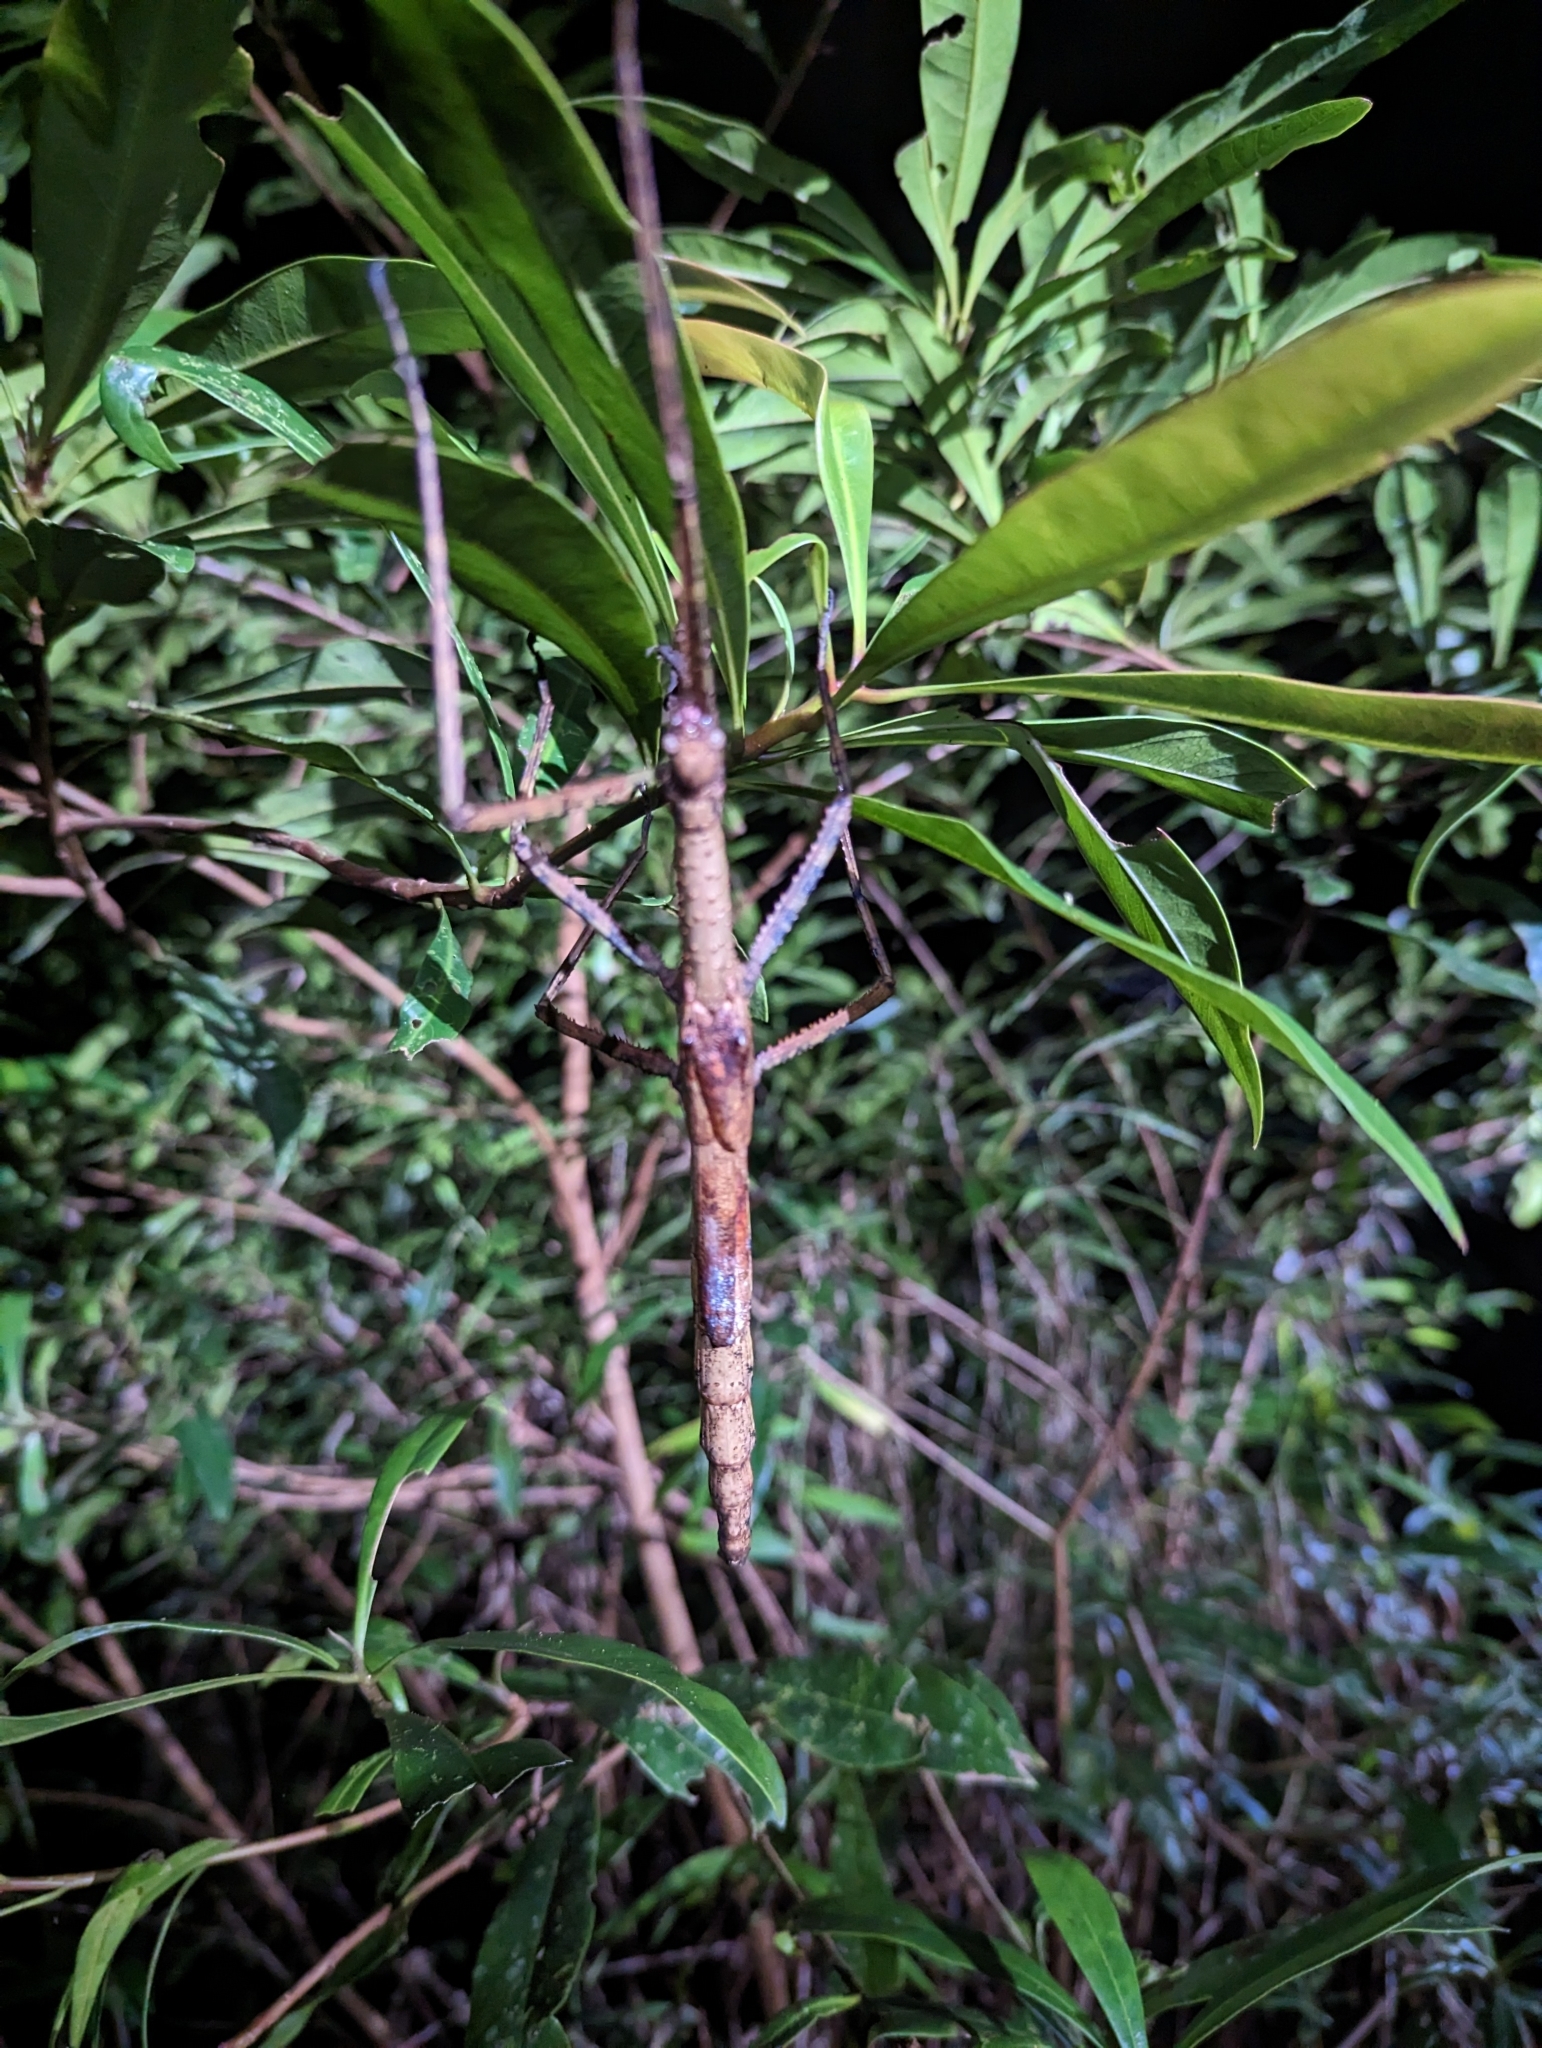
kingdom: Animalia
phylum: Arthropoda
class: Insecta
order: Phasmida
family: Phasmatidae
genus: Anchiale
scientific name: Anchiale briareus
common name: Strong stick insect
